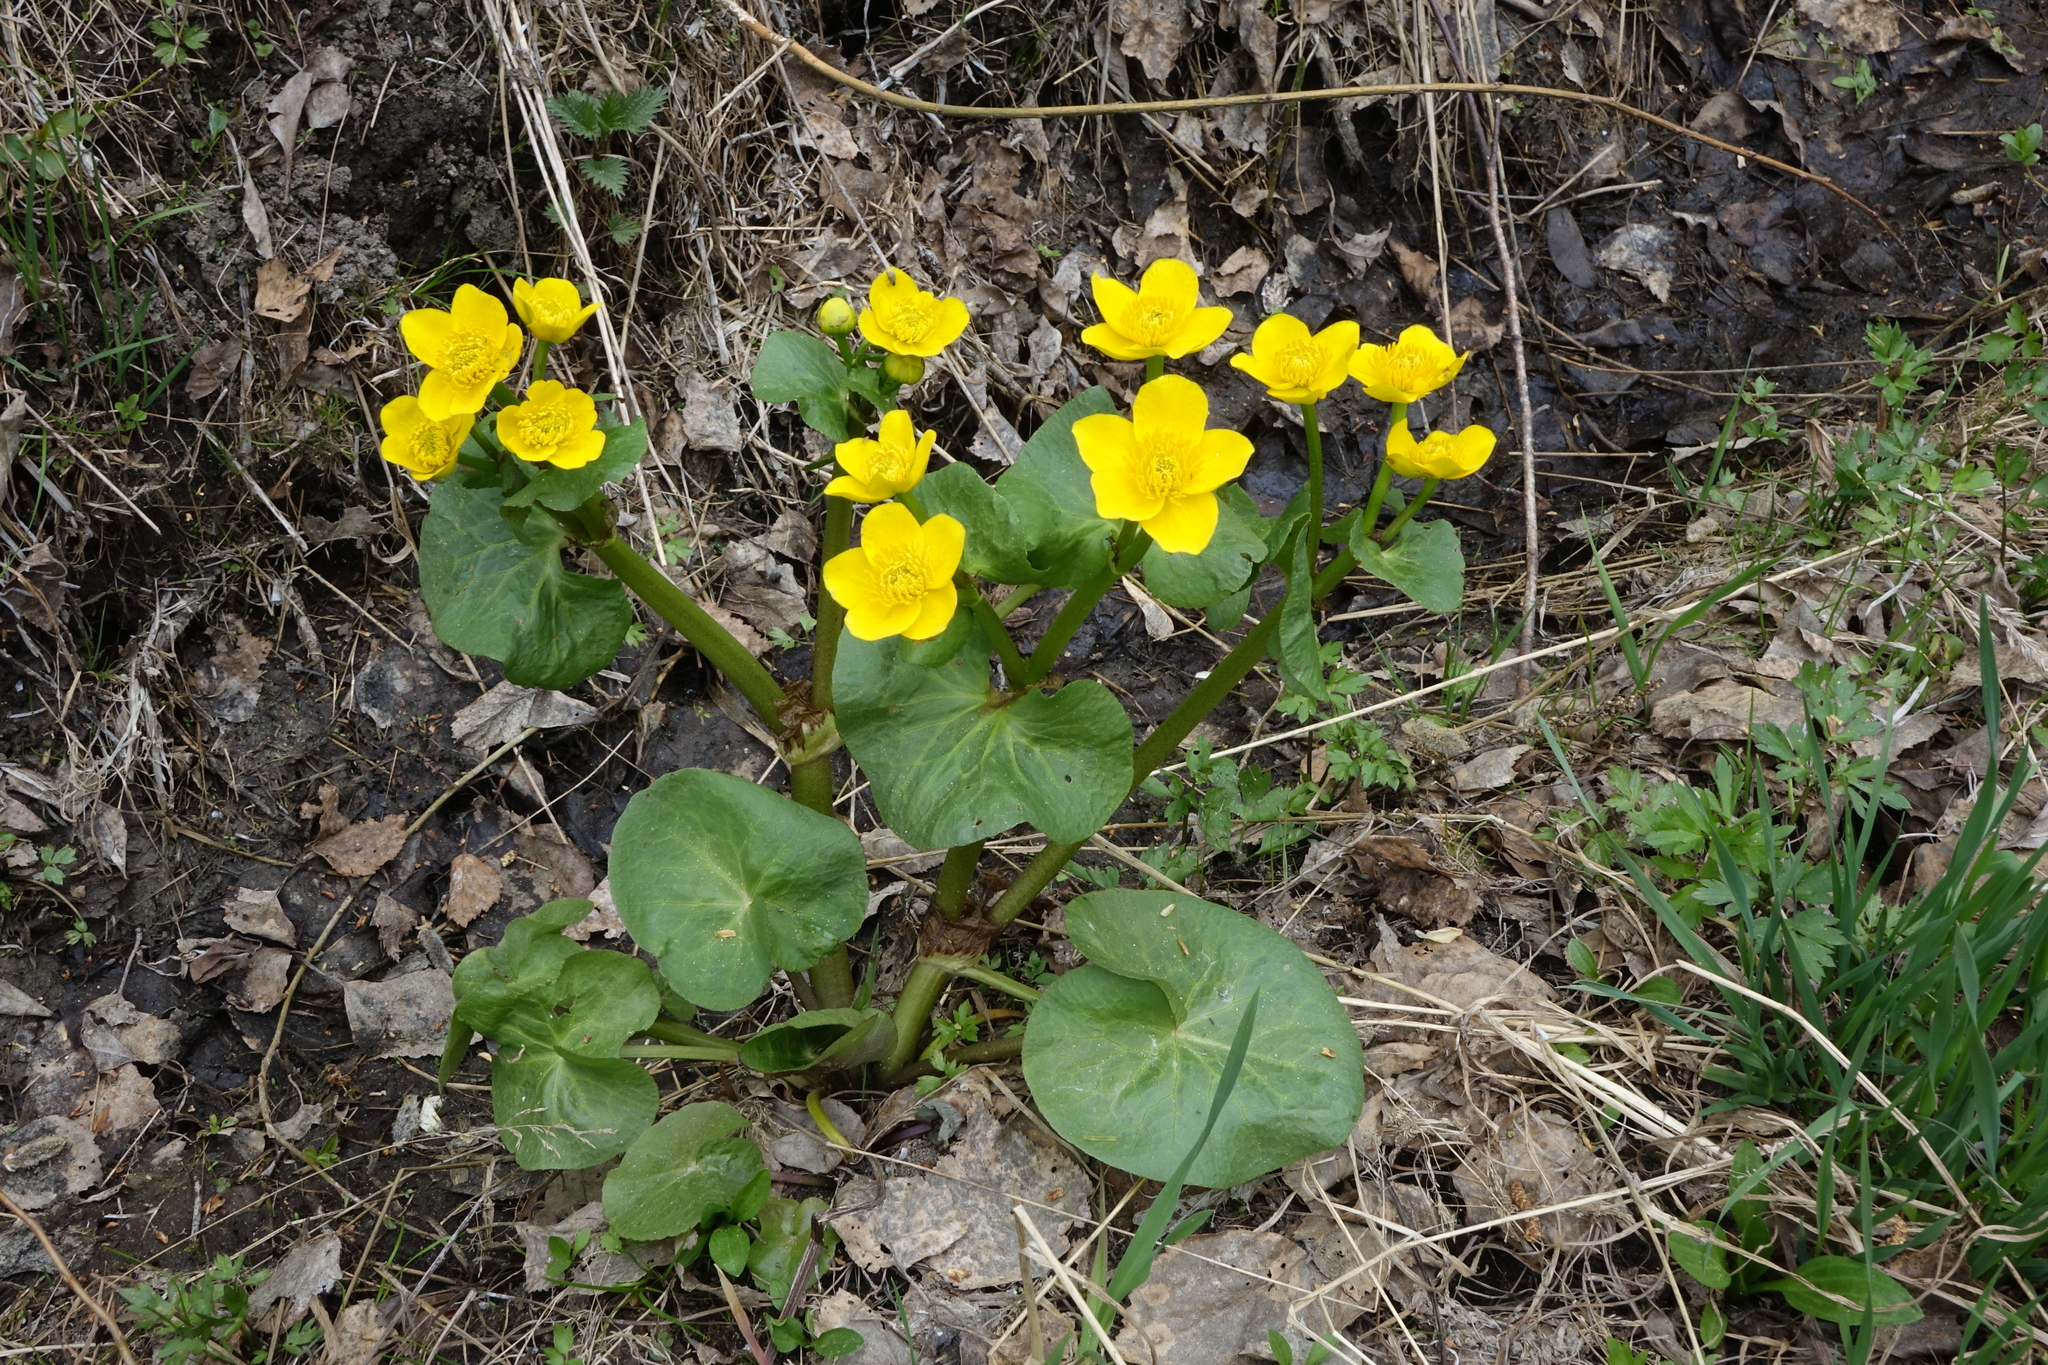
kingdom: Plantae
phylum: Tracheophyta
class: Magnoliopsida
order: Ranunculales
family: Ranunculaceae
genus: Caltha
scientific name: Caltha palustris
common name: Marsh marigold
